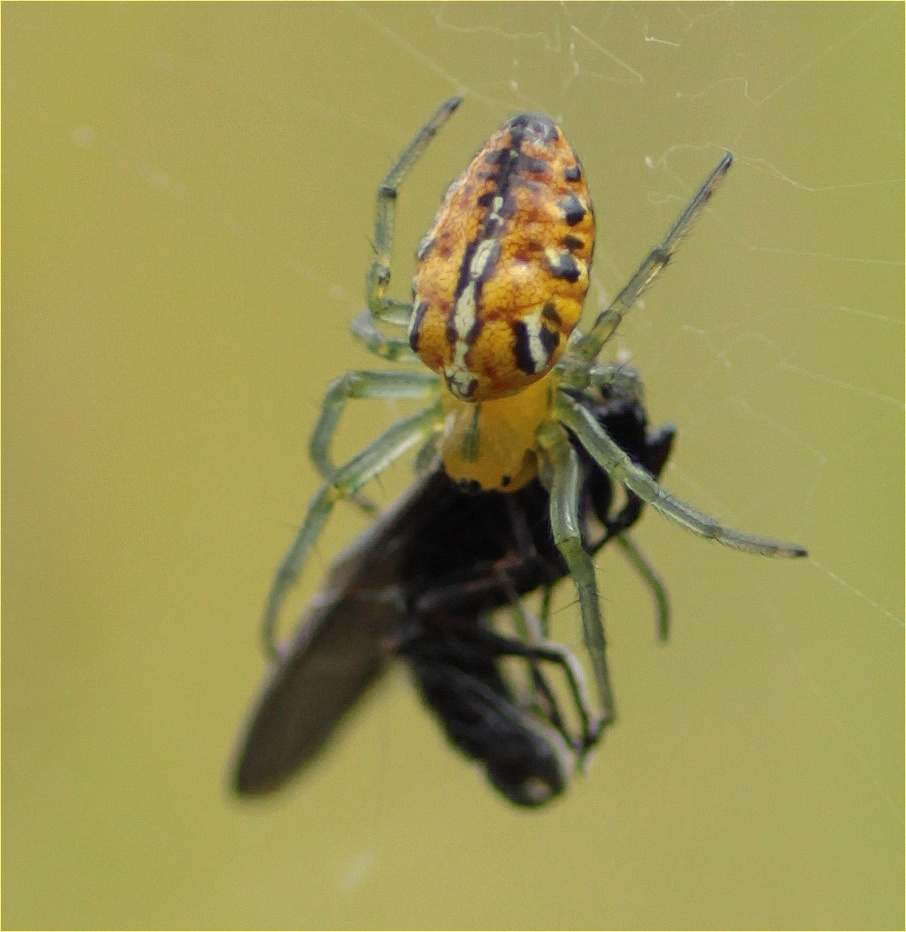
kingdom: Animalia
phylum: Arthropoda
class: Arachnida
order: Araneae
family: Araneidae
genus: Alpaida
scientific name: Alpaida variabilis
